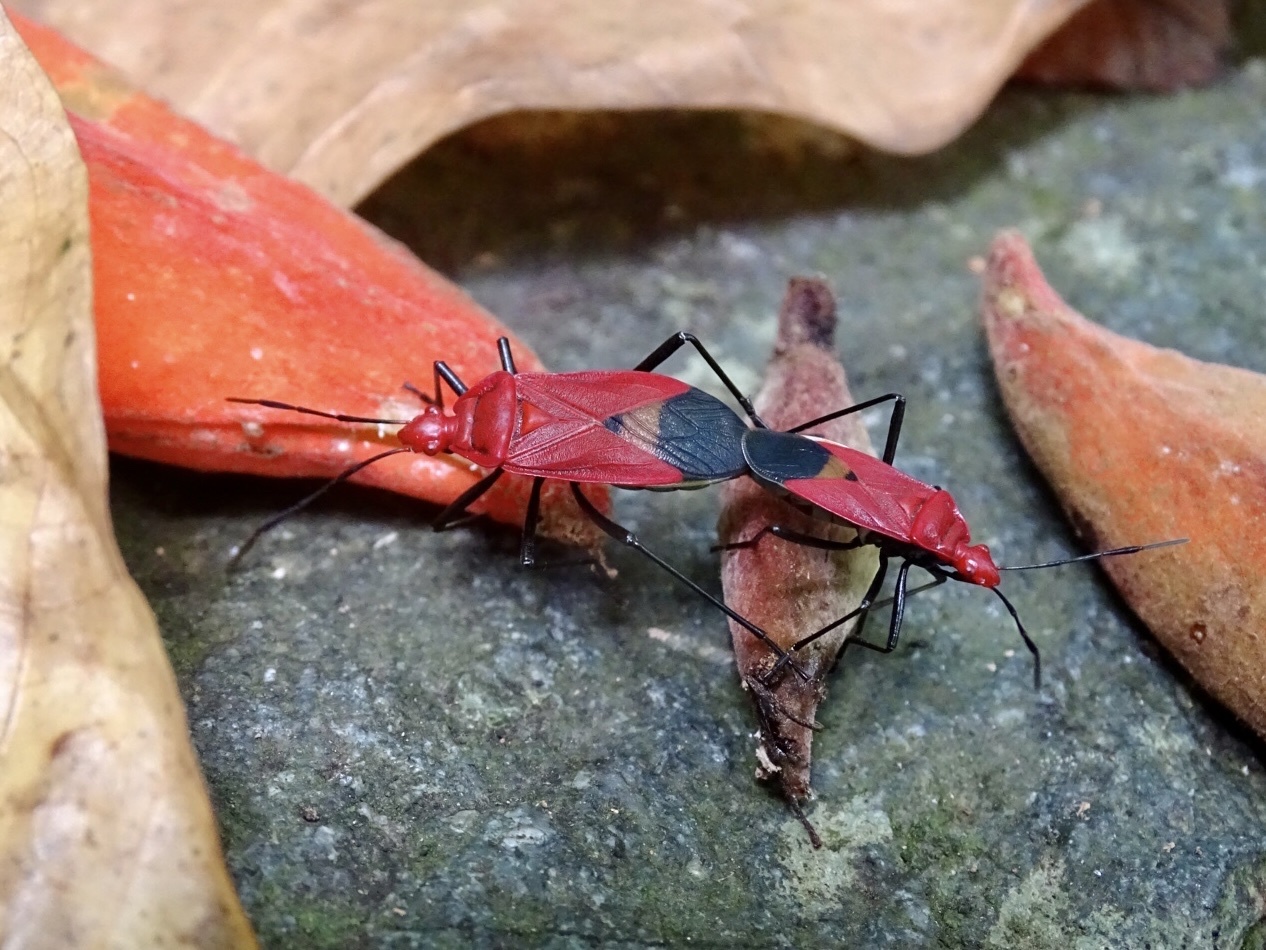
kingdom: Animalia
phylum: Arthropoda
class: Insecta
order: Hemiptera
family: Pyrrhocoridae
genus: Dindymus
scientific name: Dindymus
